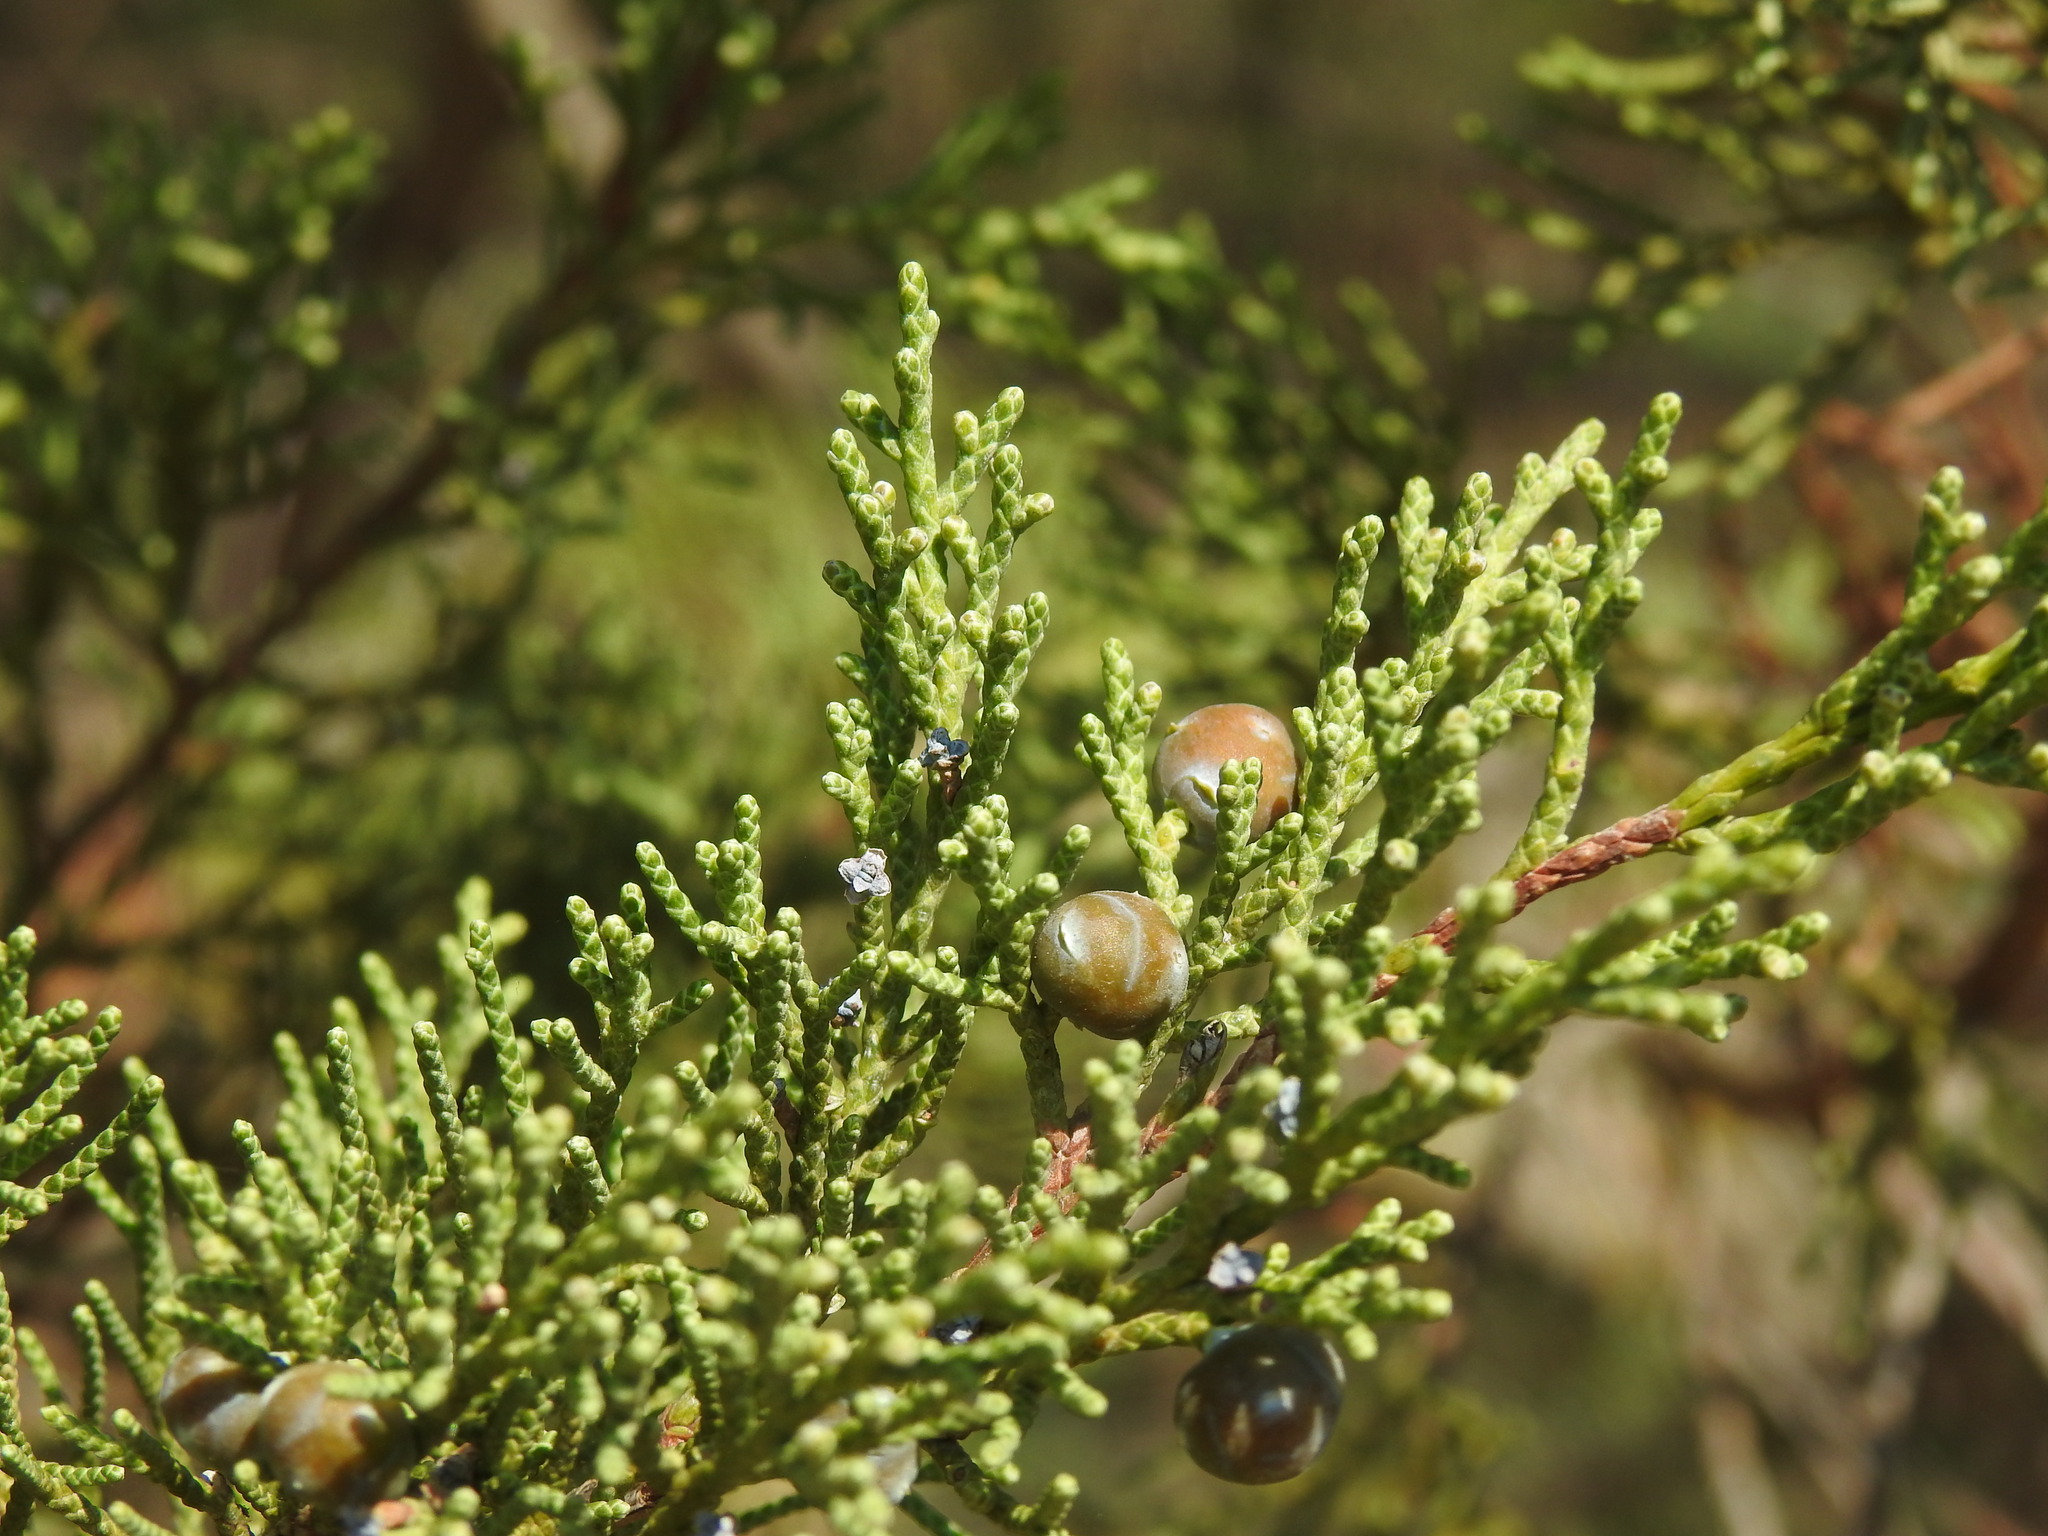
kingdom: Plantae
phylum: Tracheophyta
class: Pinopsida
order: Pinales
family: Cupressaceae
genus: Juniperus
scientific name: Juniperus phoenicea
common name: Phoenician juniper
